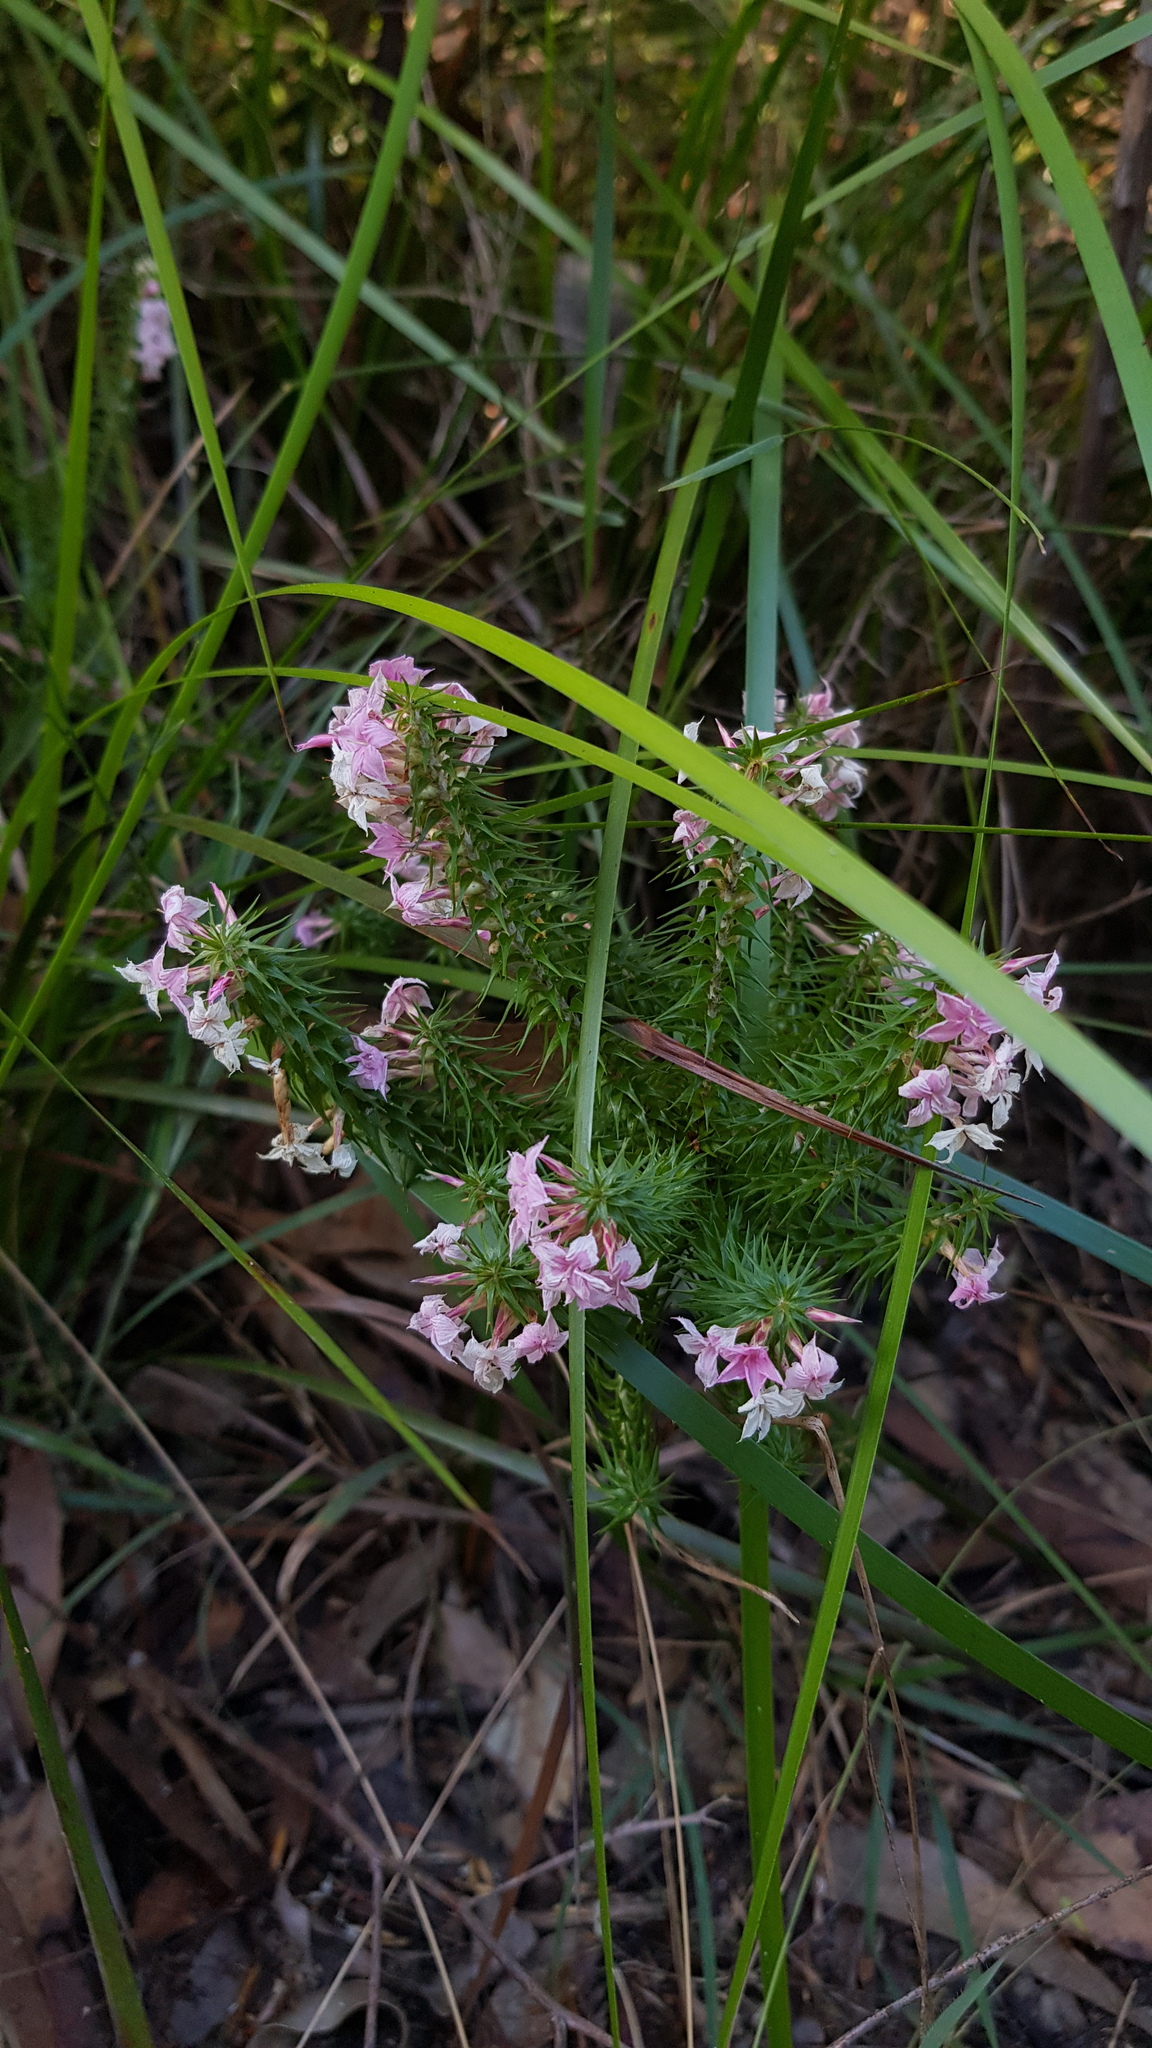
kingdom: Plantae
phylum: Tracheophyta
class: Magnoliopsida
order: Ericales
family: Ericaceae
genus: Woollsia
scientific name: Woollsia pungens
